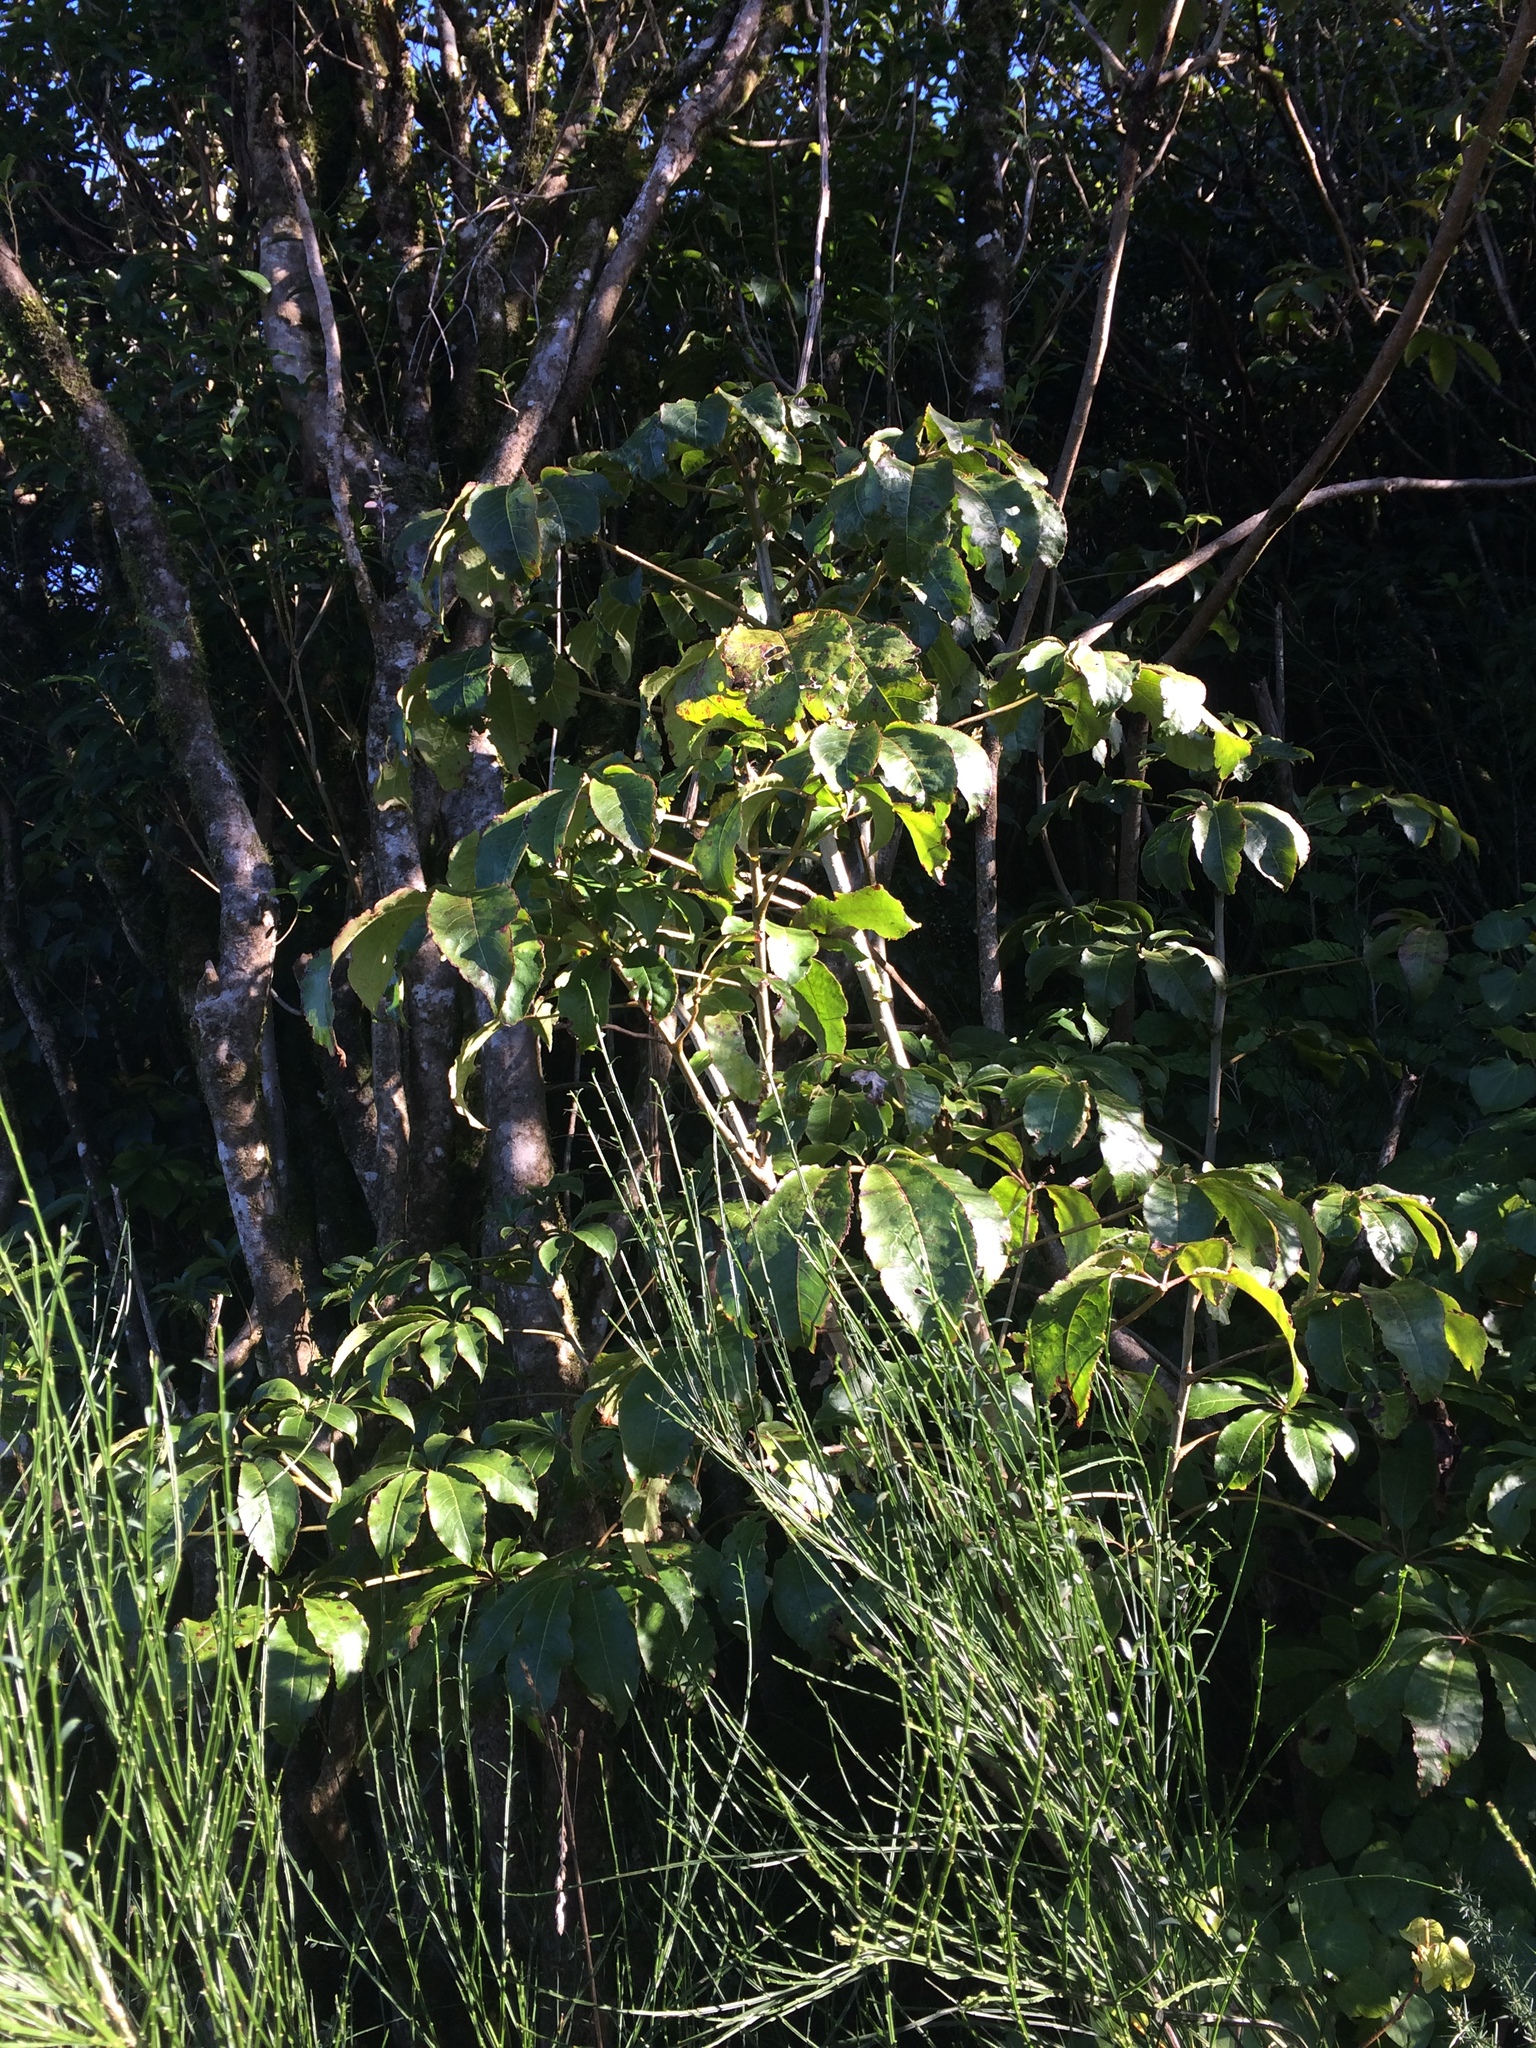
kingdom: Plantae
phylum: Tracheophyta
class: Magnoliopsida
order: Apiales
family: Araliaceae
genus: Schefflera
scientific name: Schefflera digitata
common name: Pate
